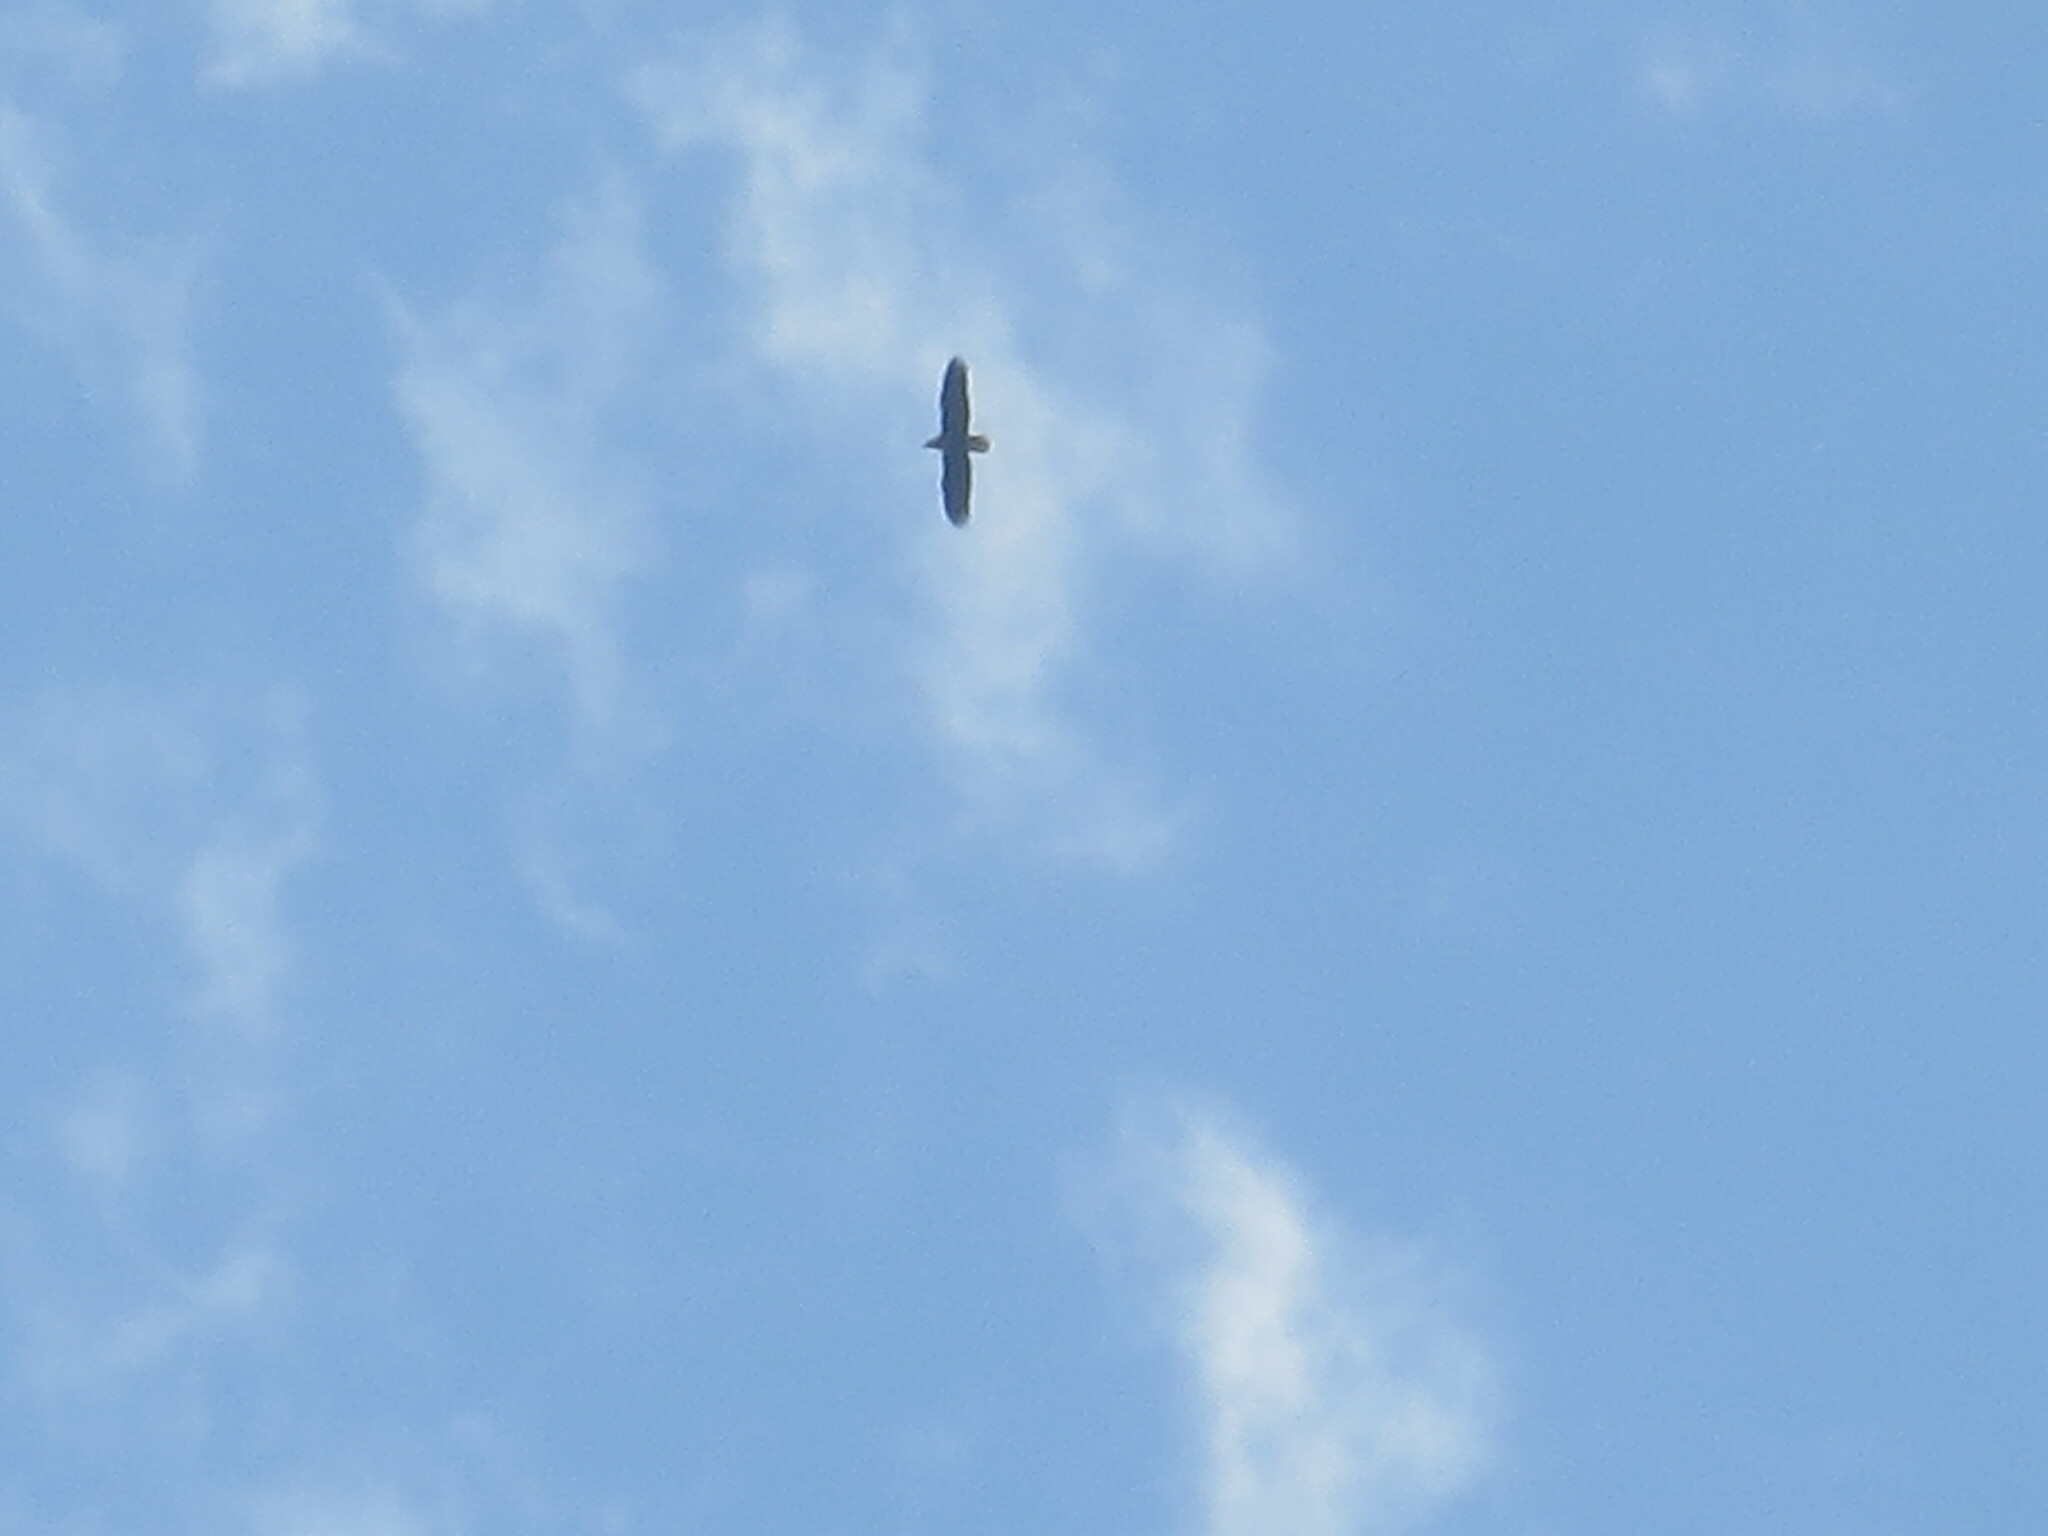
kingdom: Animalia
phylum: Chordata
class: Aves
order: Accipitriformes
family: Accipitridae
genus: Haliaeetus
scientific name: Haliaeetus leucocephalus
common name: Bald eagle
